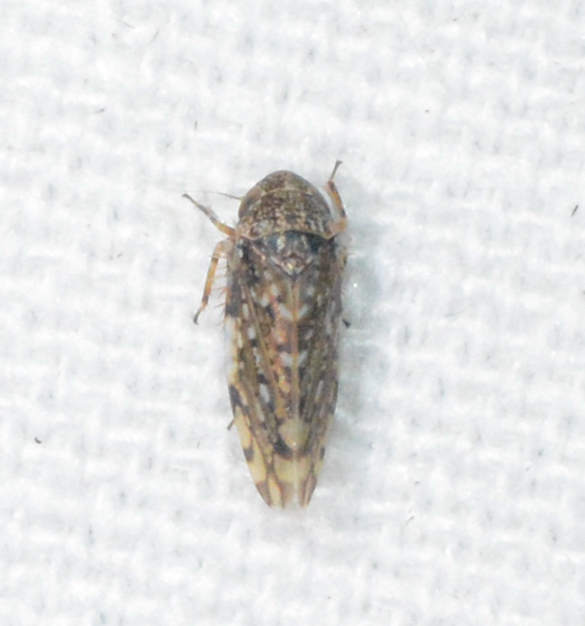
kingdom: Animalia
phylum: Arthropoda
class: Insecta
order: Hemiptera
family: Cicadellidae
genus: Xestocephalus
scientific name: Xestocephalus tessellatus
